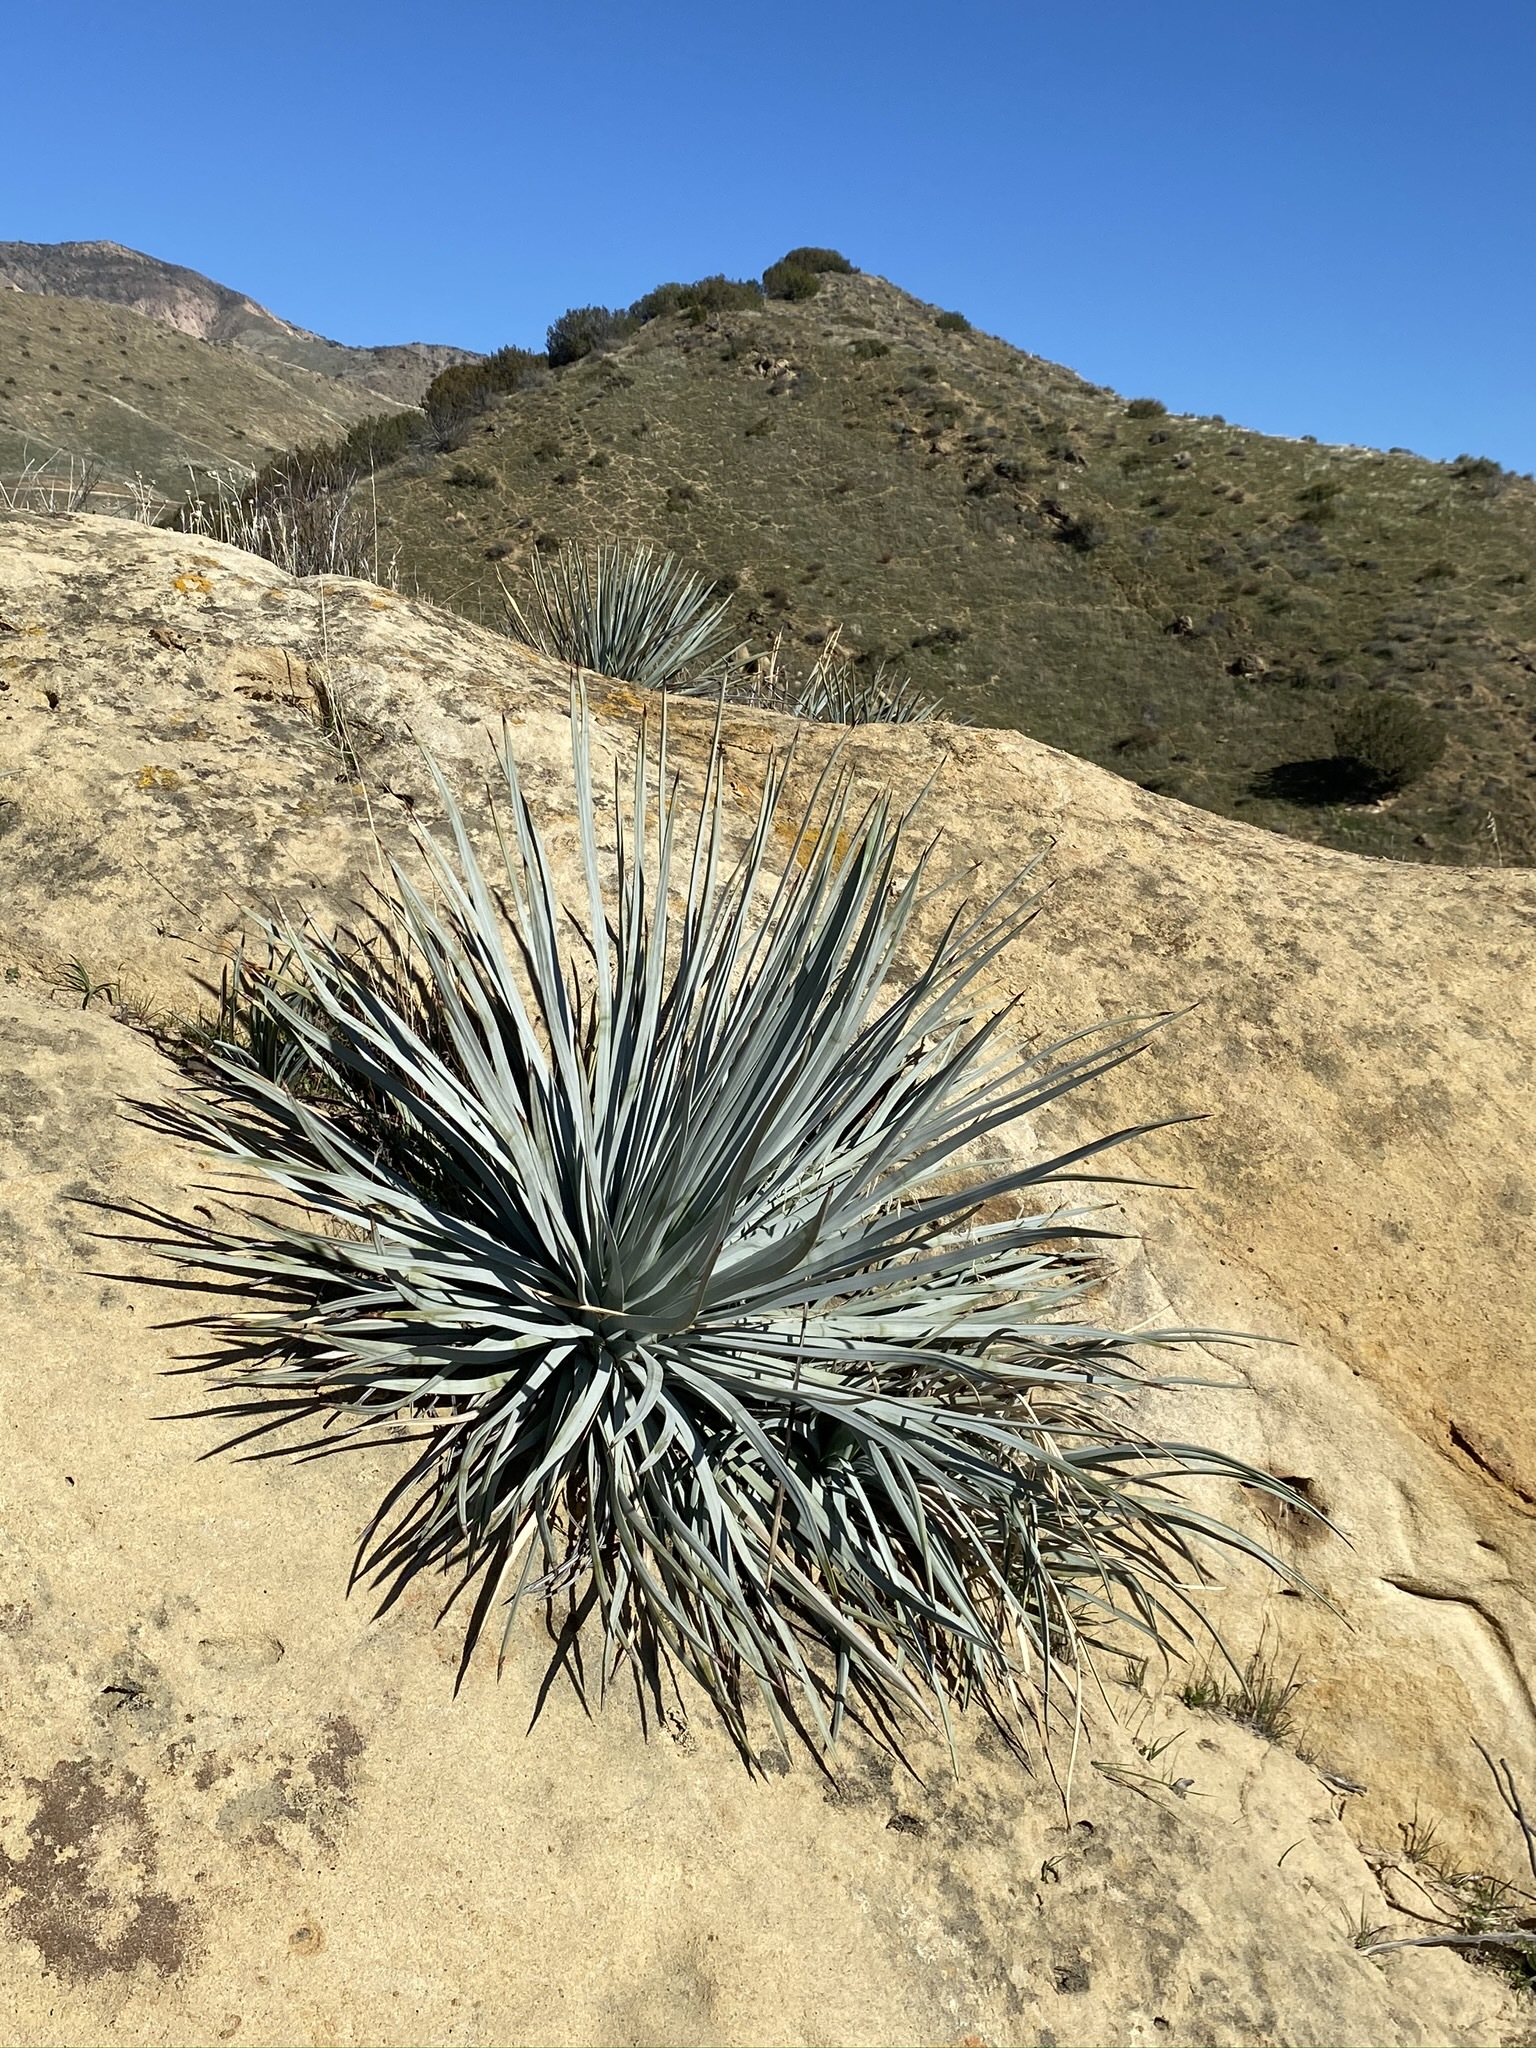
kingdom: Plantae
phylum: Tracheophyta
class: Liliopsida
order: Asparagales
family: Asparagaceae
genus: Hesperoyucca
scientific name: Hesperoyucca whipplei
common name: Our lord's-candle
